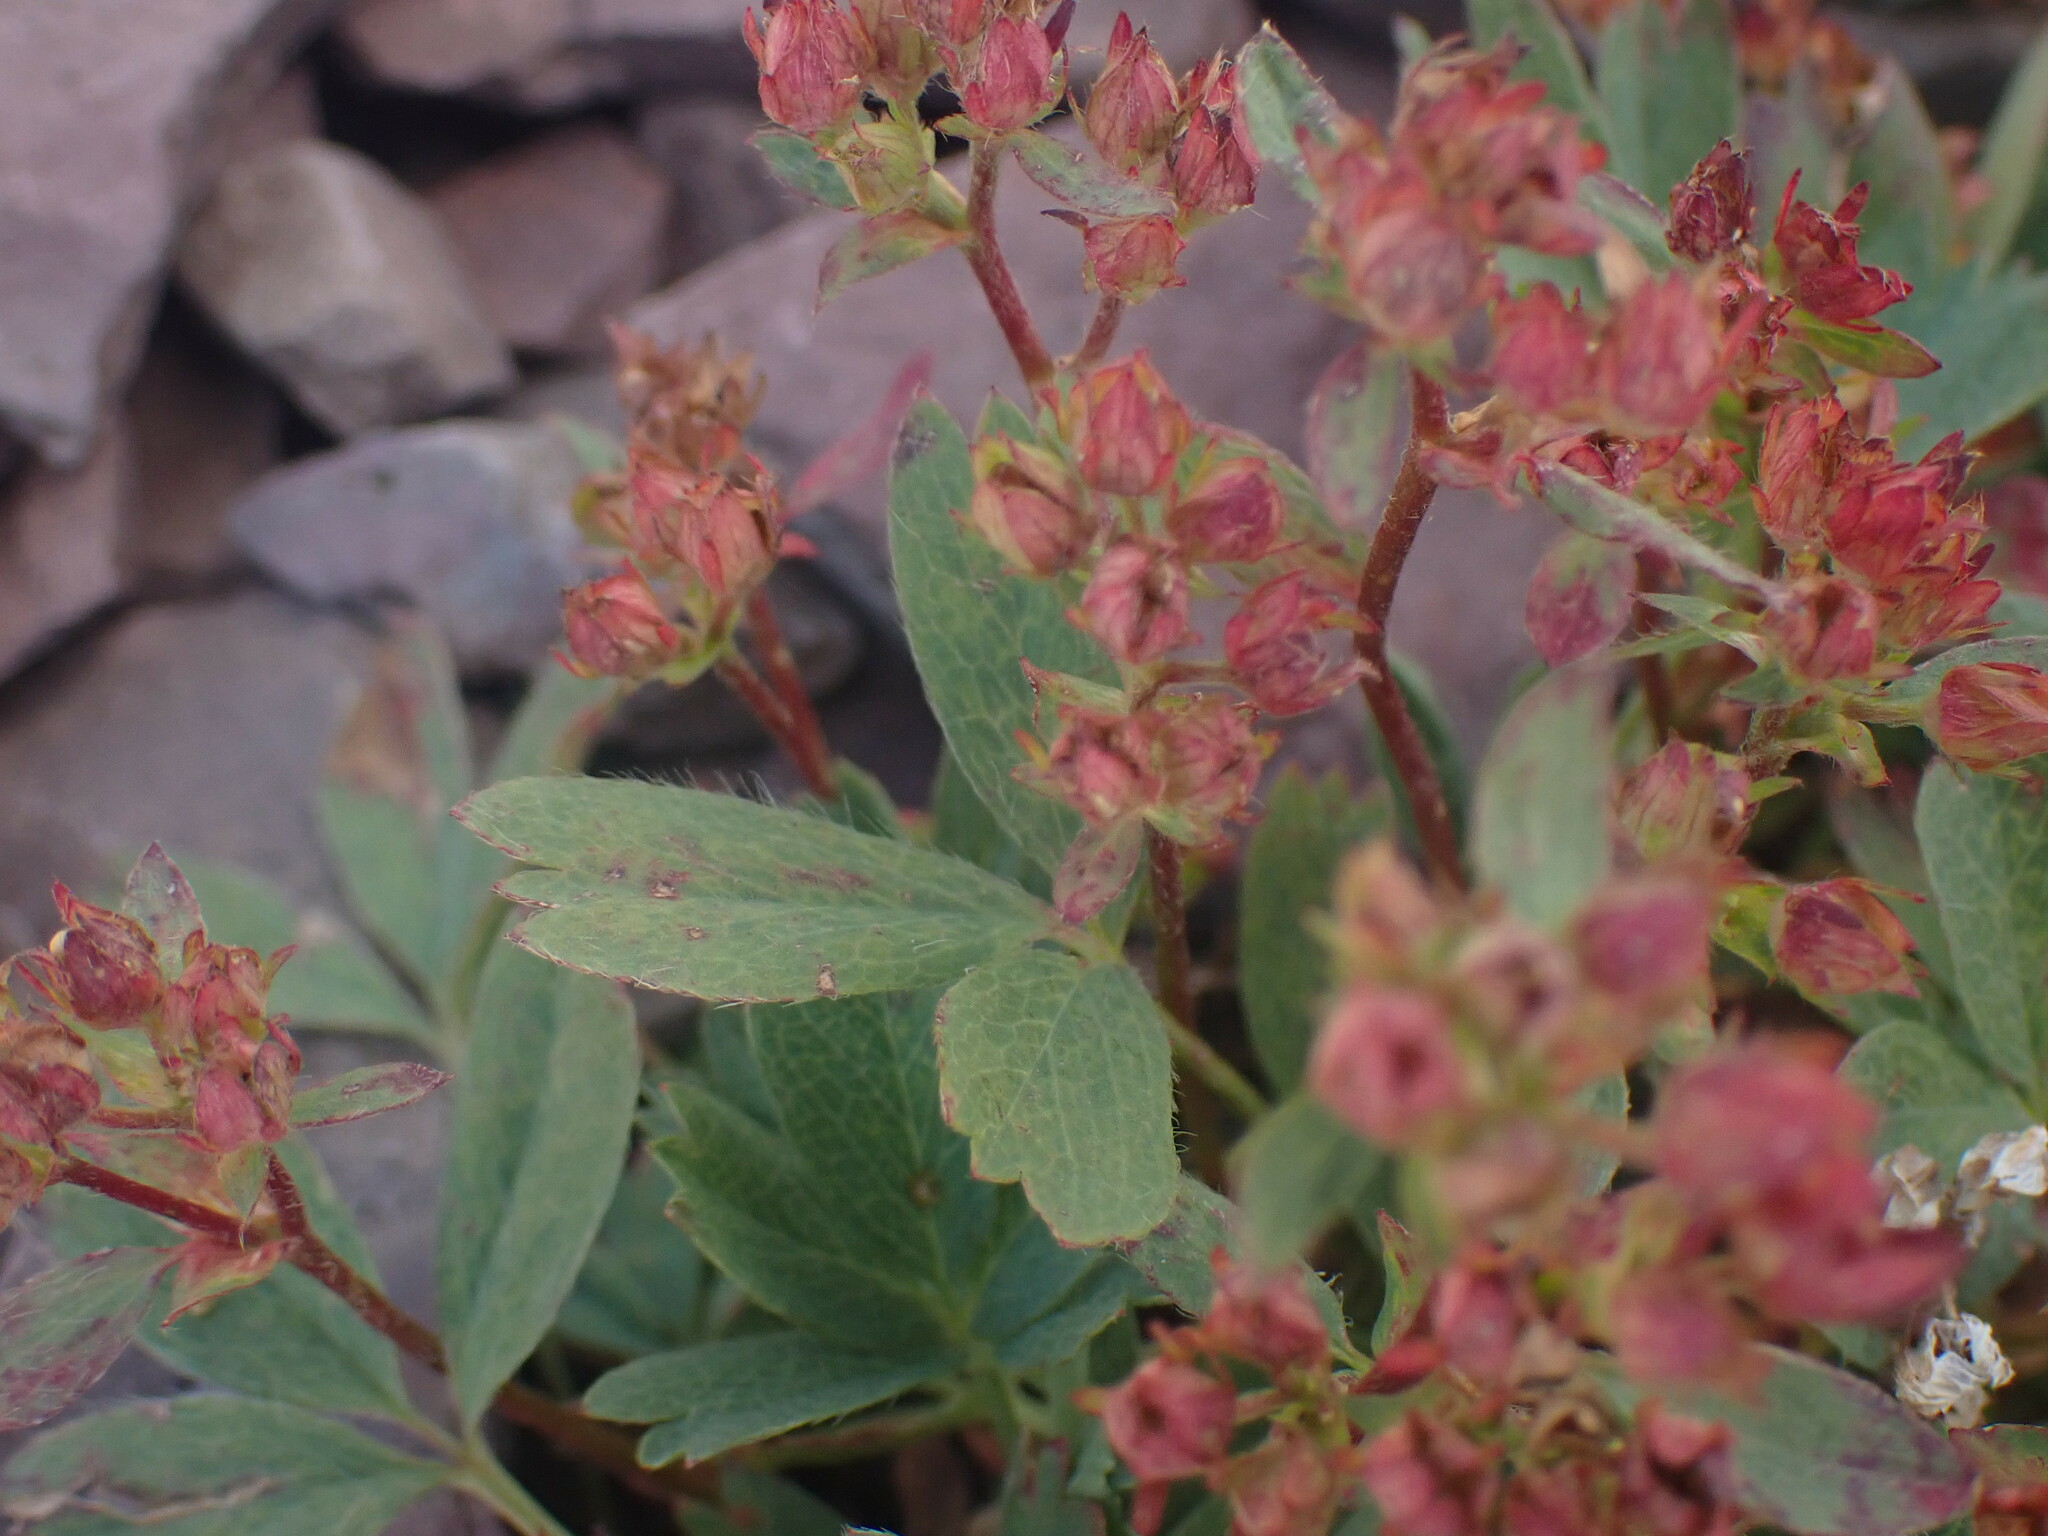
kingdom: Plantae
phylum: Tracheophyta
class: Magnoliopsida
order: Rosales
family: Rosaceae
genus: Sibbaldia
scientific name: Sibbaldia procumbens
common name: Creeping sibbaldia
